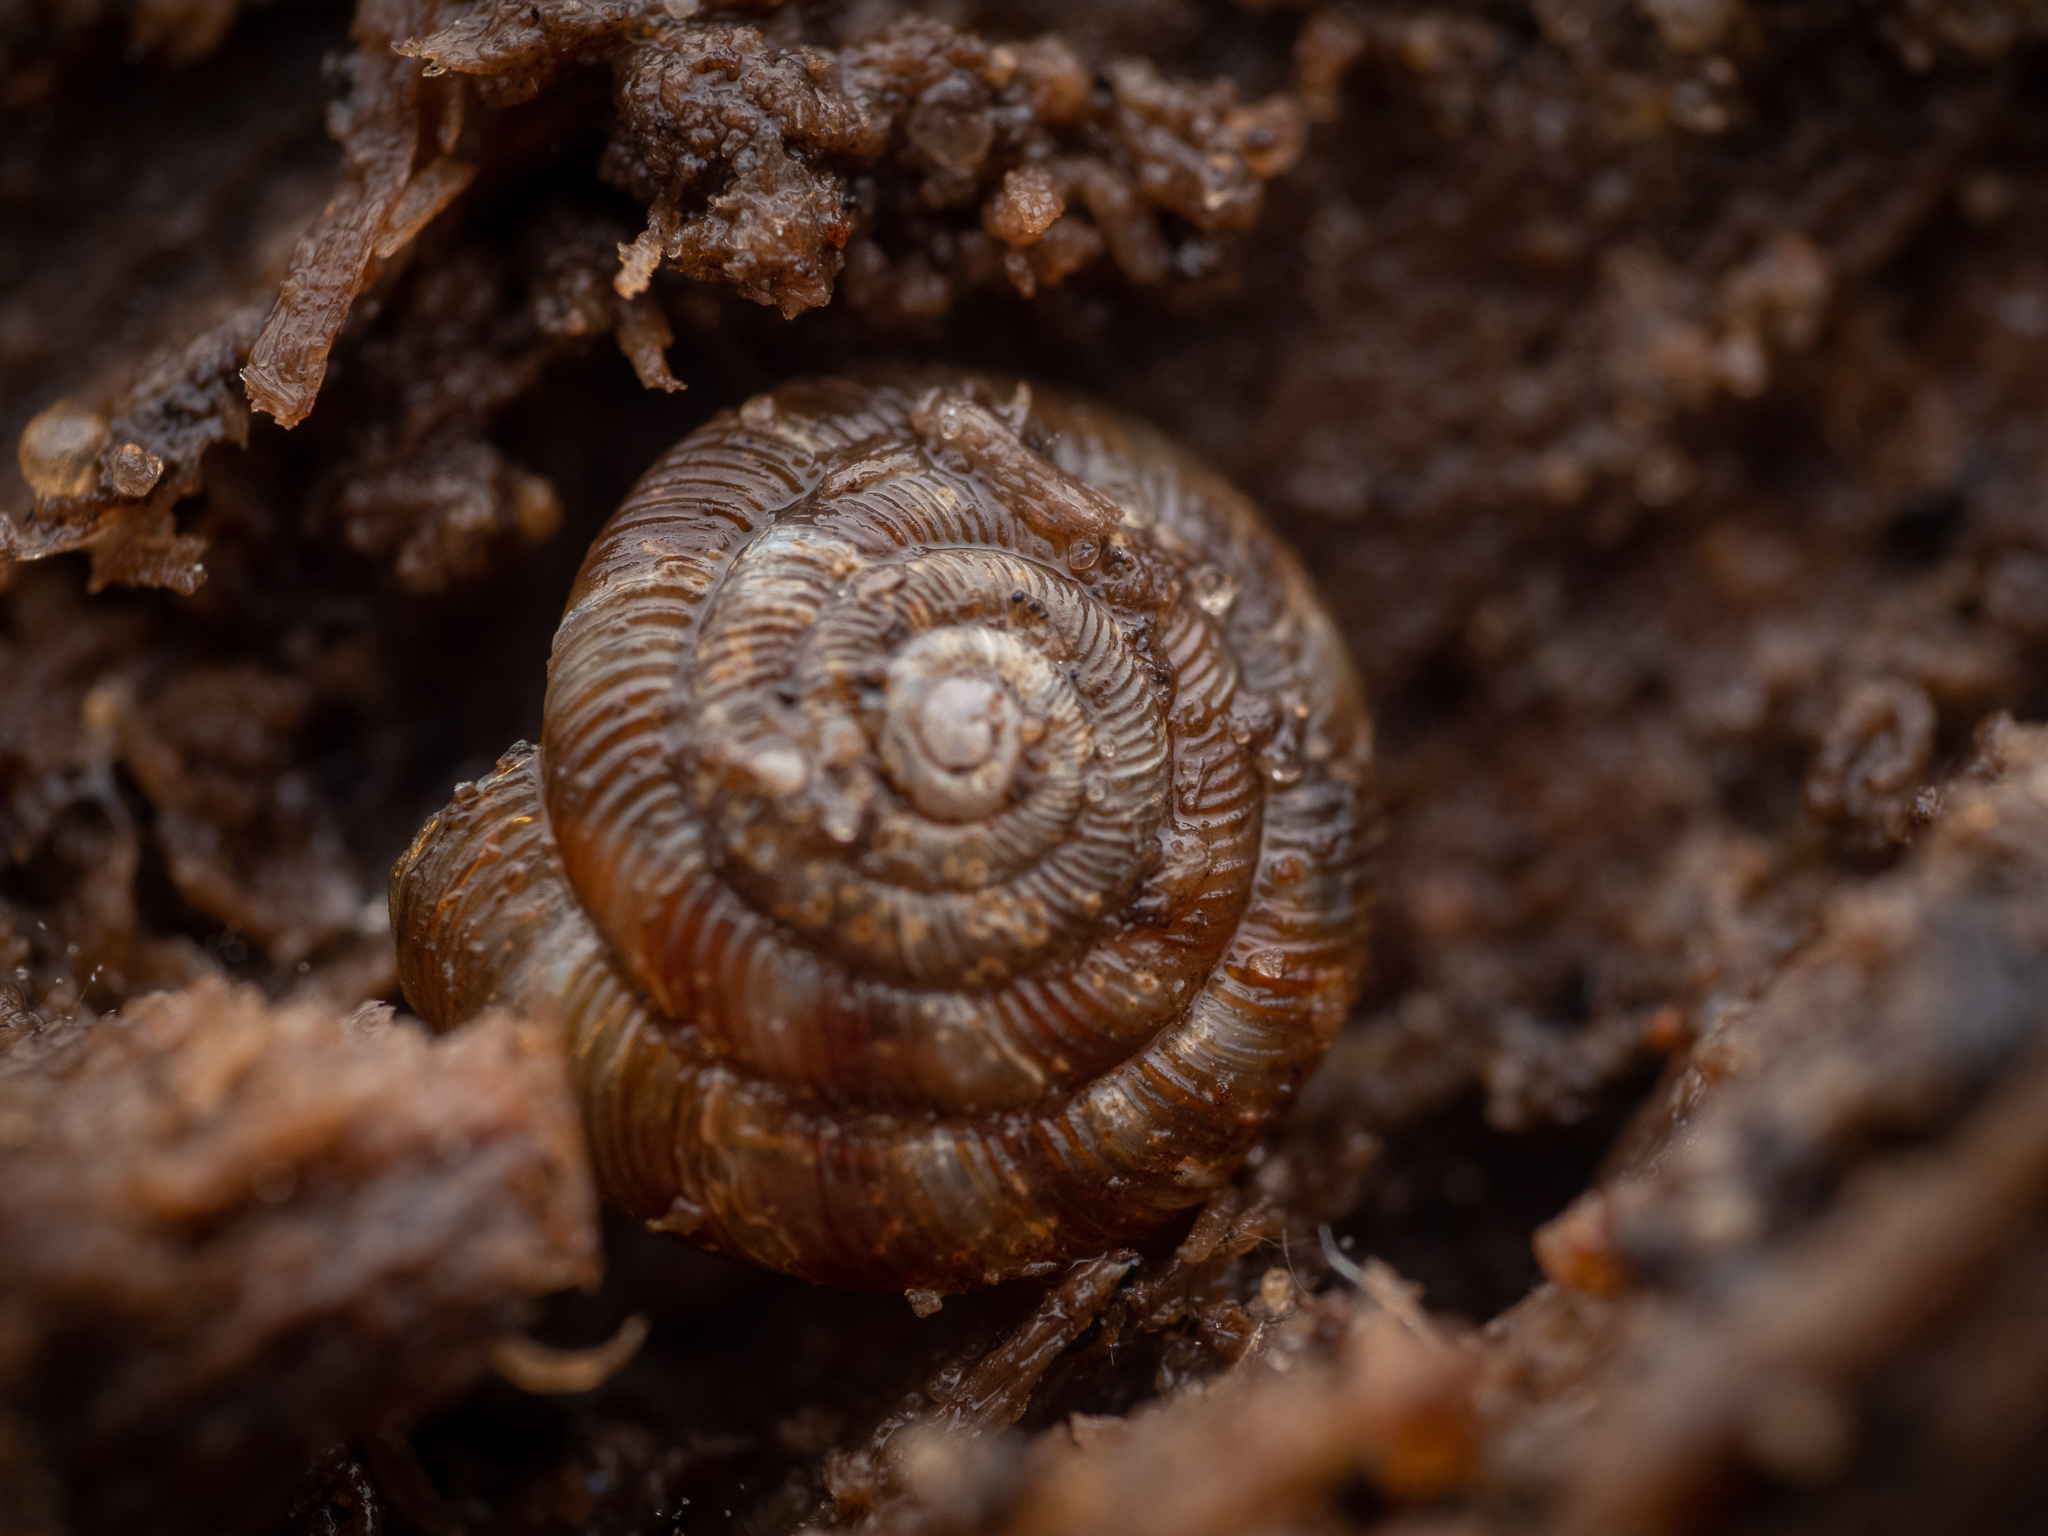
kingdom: Animalia
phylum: Mollusca
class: Gastropoda
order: Stylommatophora
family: Discidae
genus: Discus
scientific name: Discus rotundatus
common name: Rounded snail
